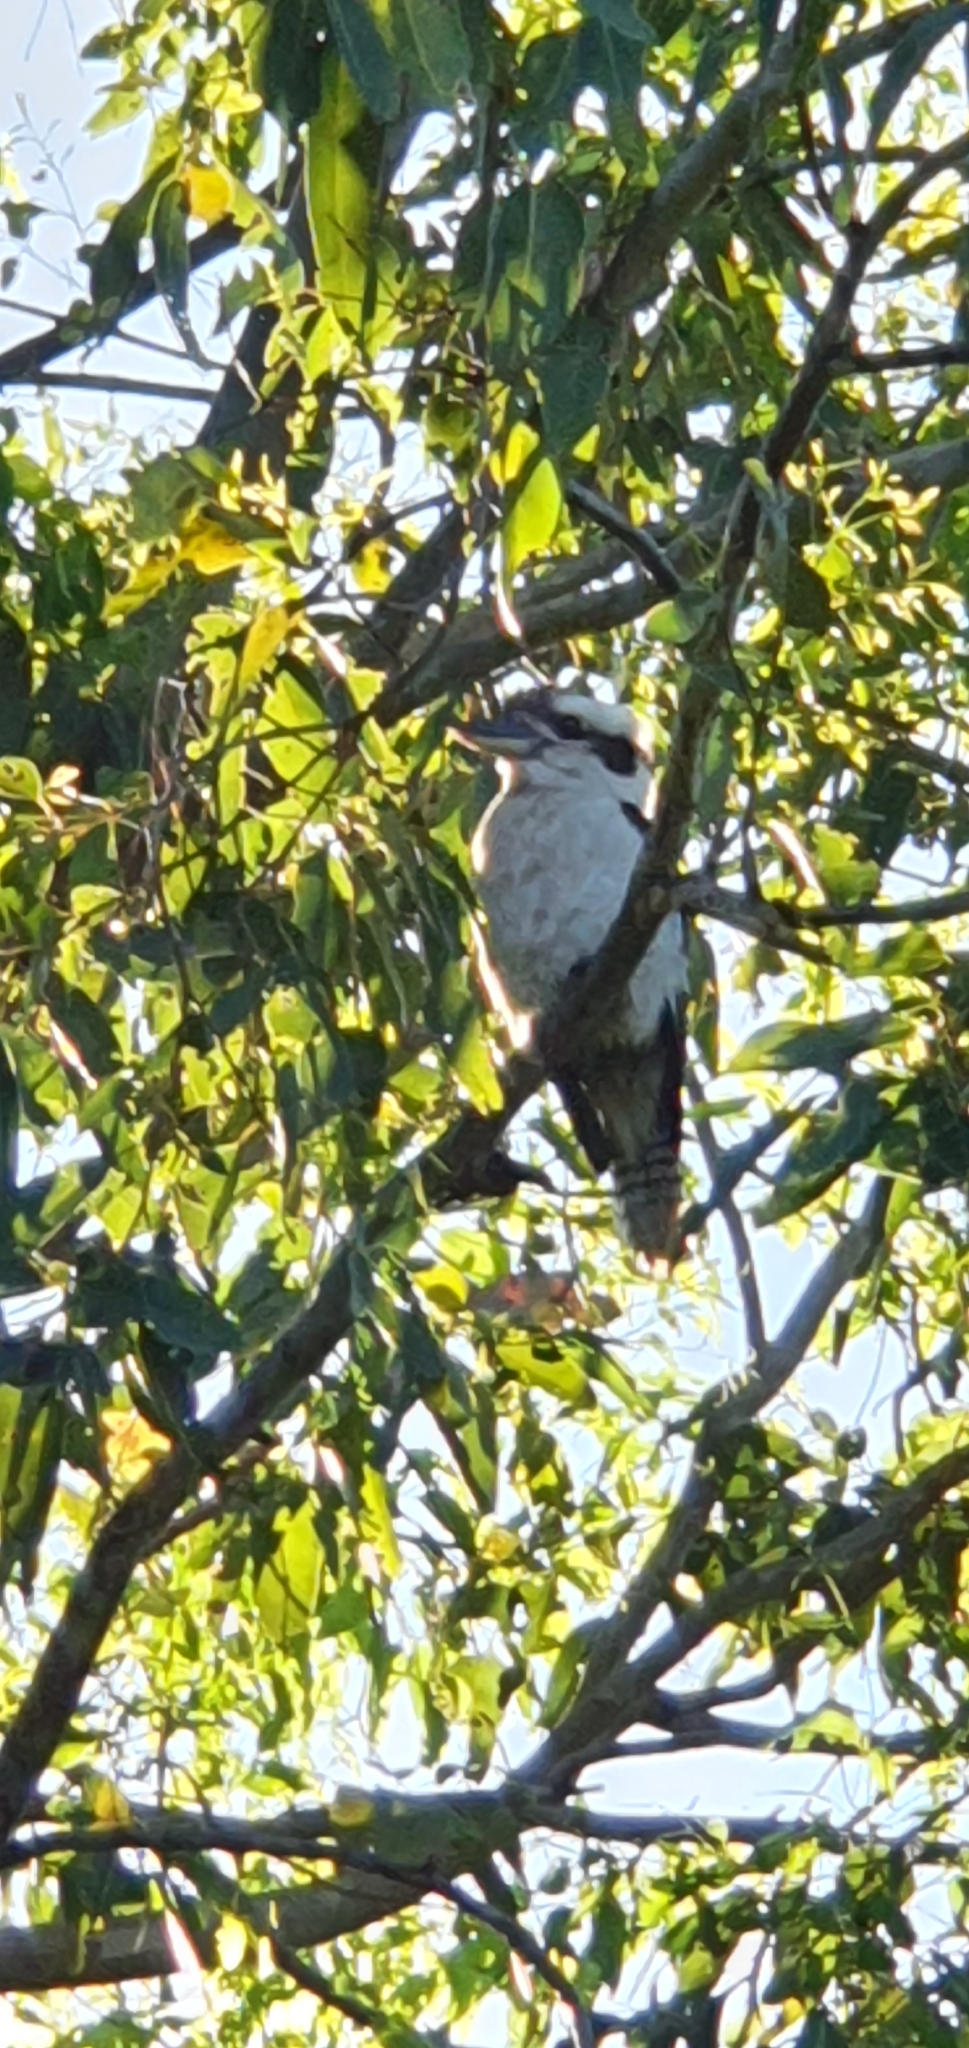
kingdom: Animalia
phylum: Chordata
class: Aves
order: Coraciiformes
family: Alcedinidae
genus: Dacelo
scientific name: Dacelo novaeguineae
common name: Laughing kookaburra
